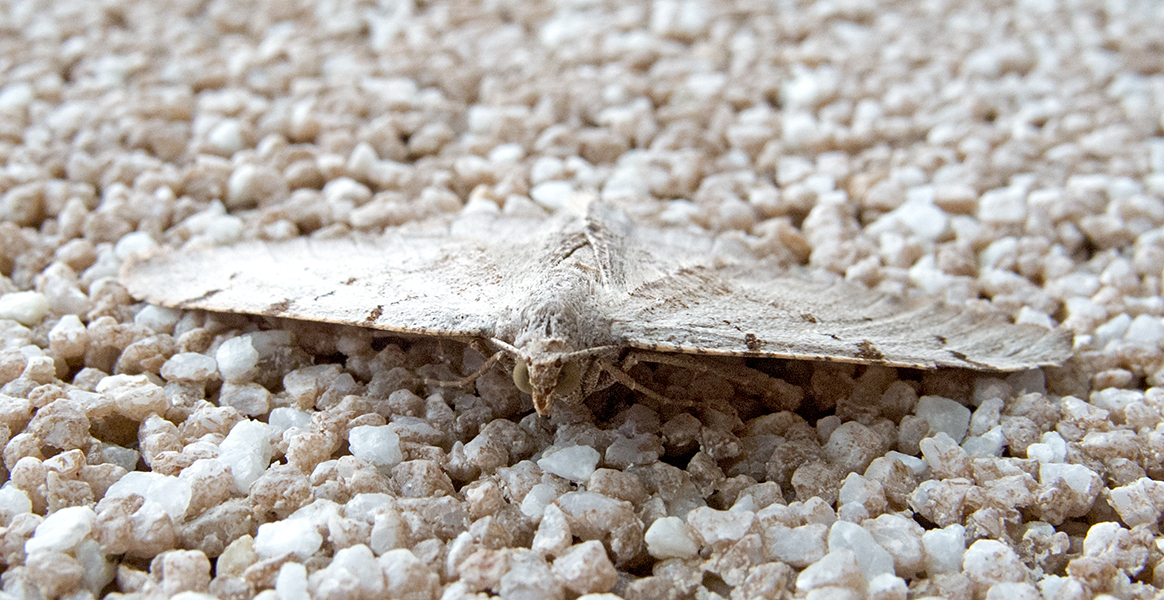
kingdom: Animalia
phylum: Arthropoda
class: Insecta
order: Lepidoptera
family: Geometridae
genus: Neognopharmia
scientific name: Neognopharmia stevenaria
